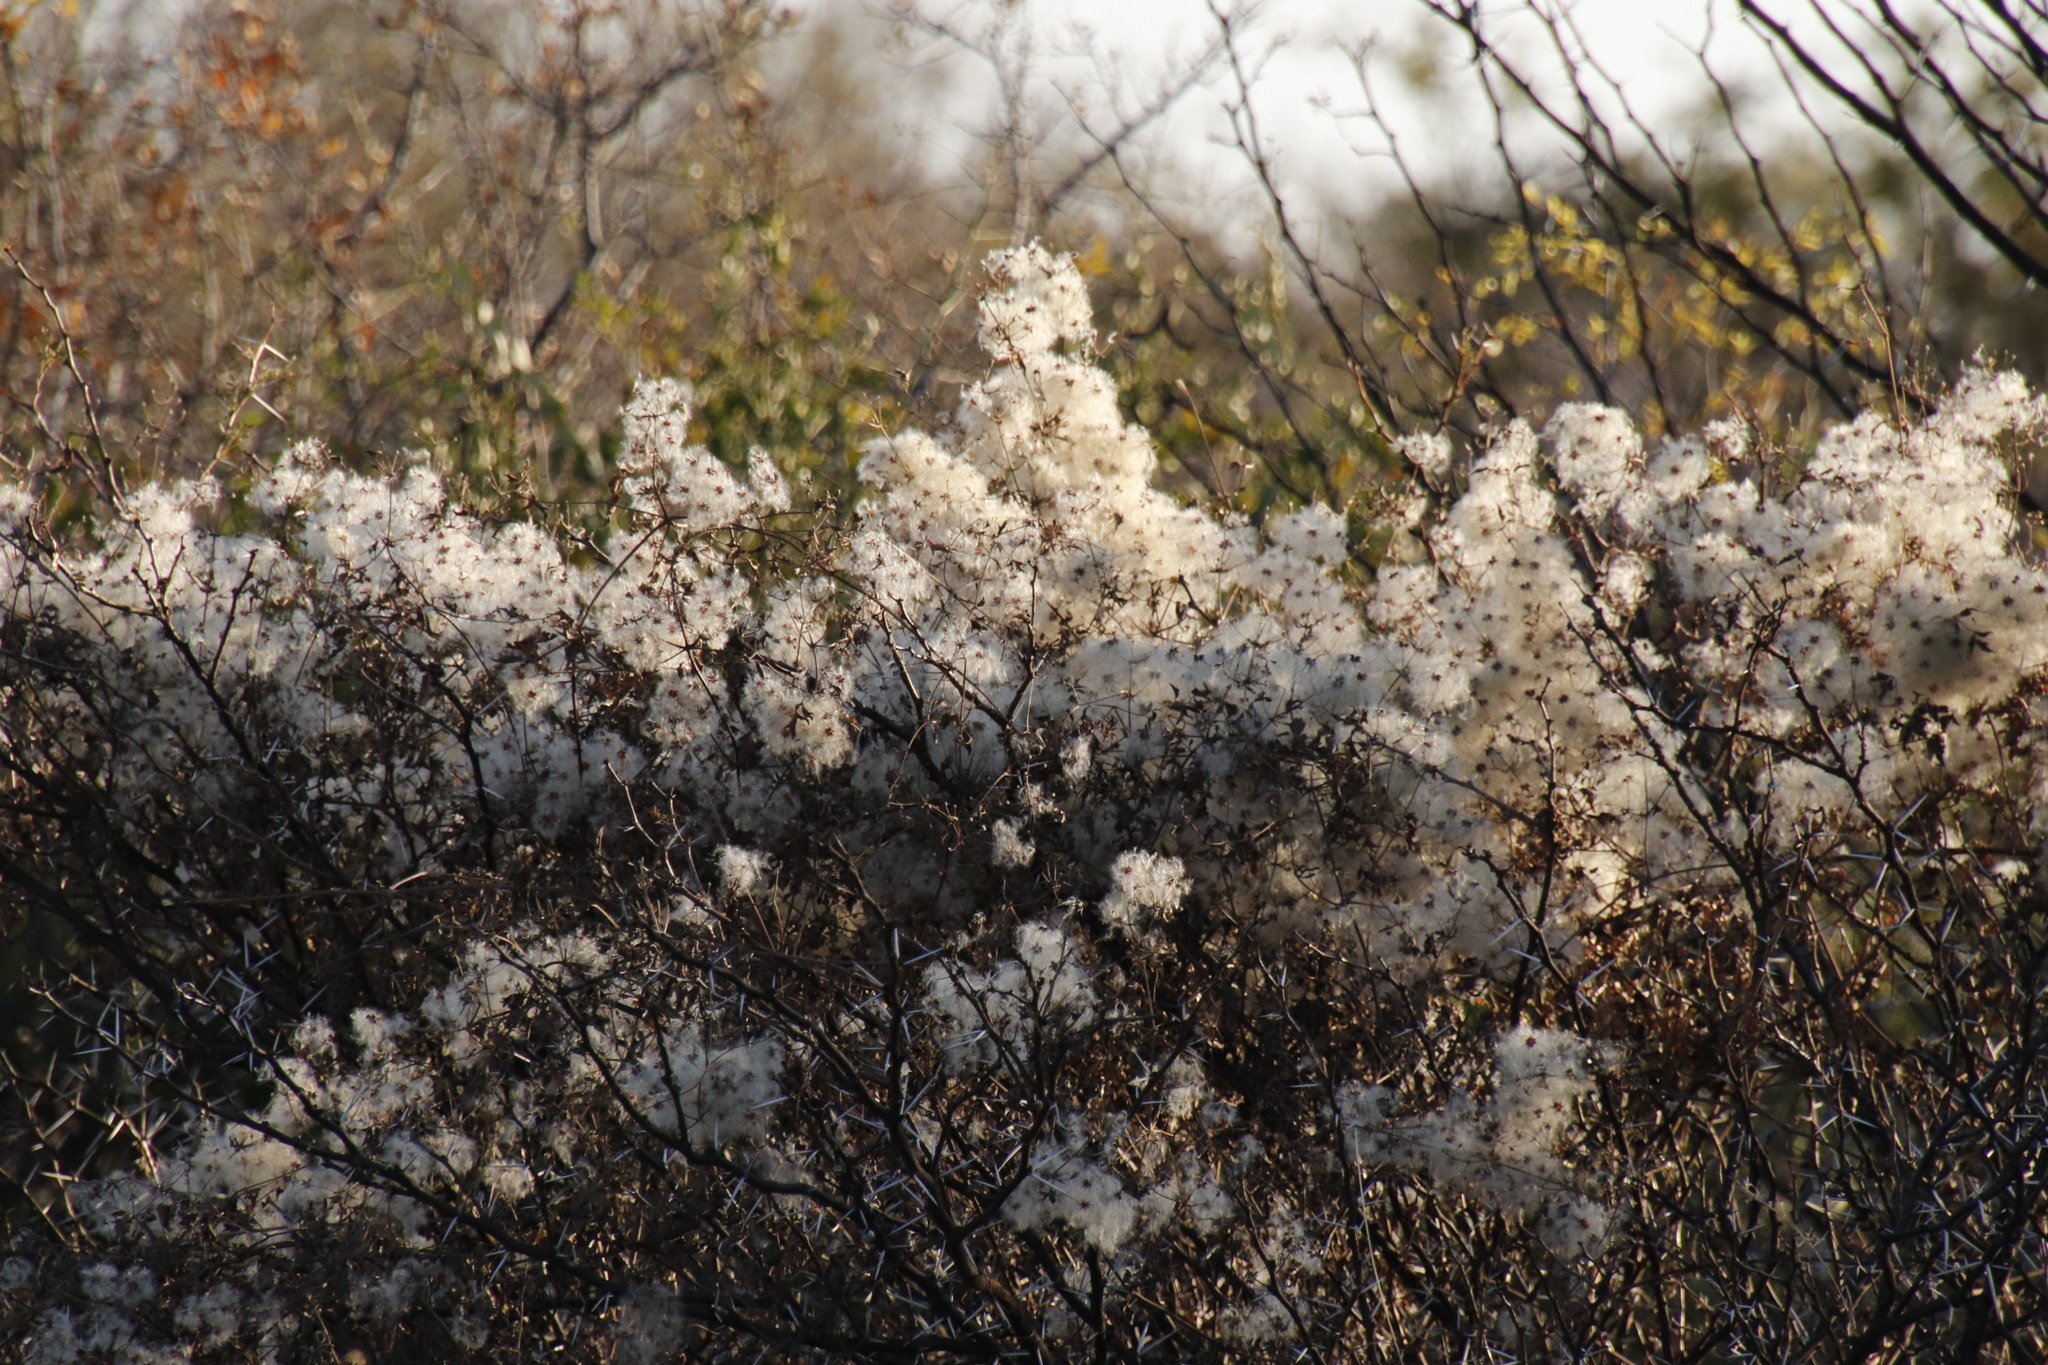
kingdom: Plantae
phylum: Tracheophyta
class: Magnoliopsida
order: Ranunculales
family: Ranunculaceae
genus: Clematis
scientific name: Clematis brachiata
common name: Traveler's-joy
